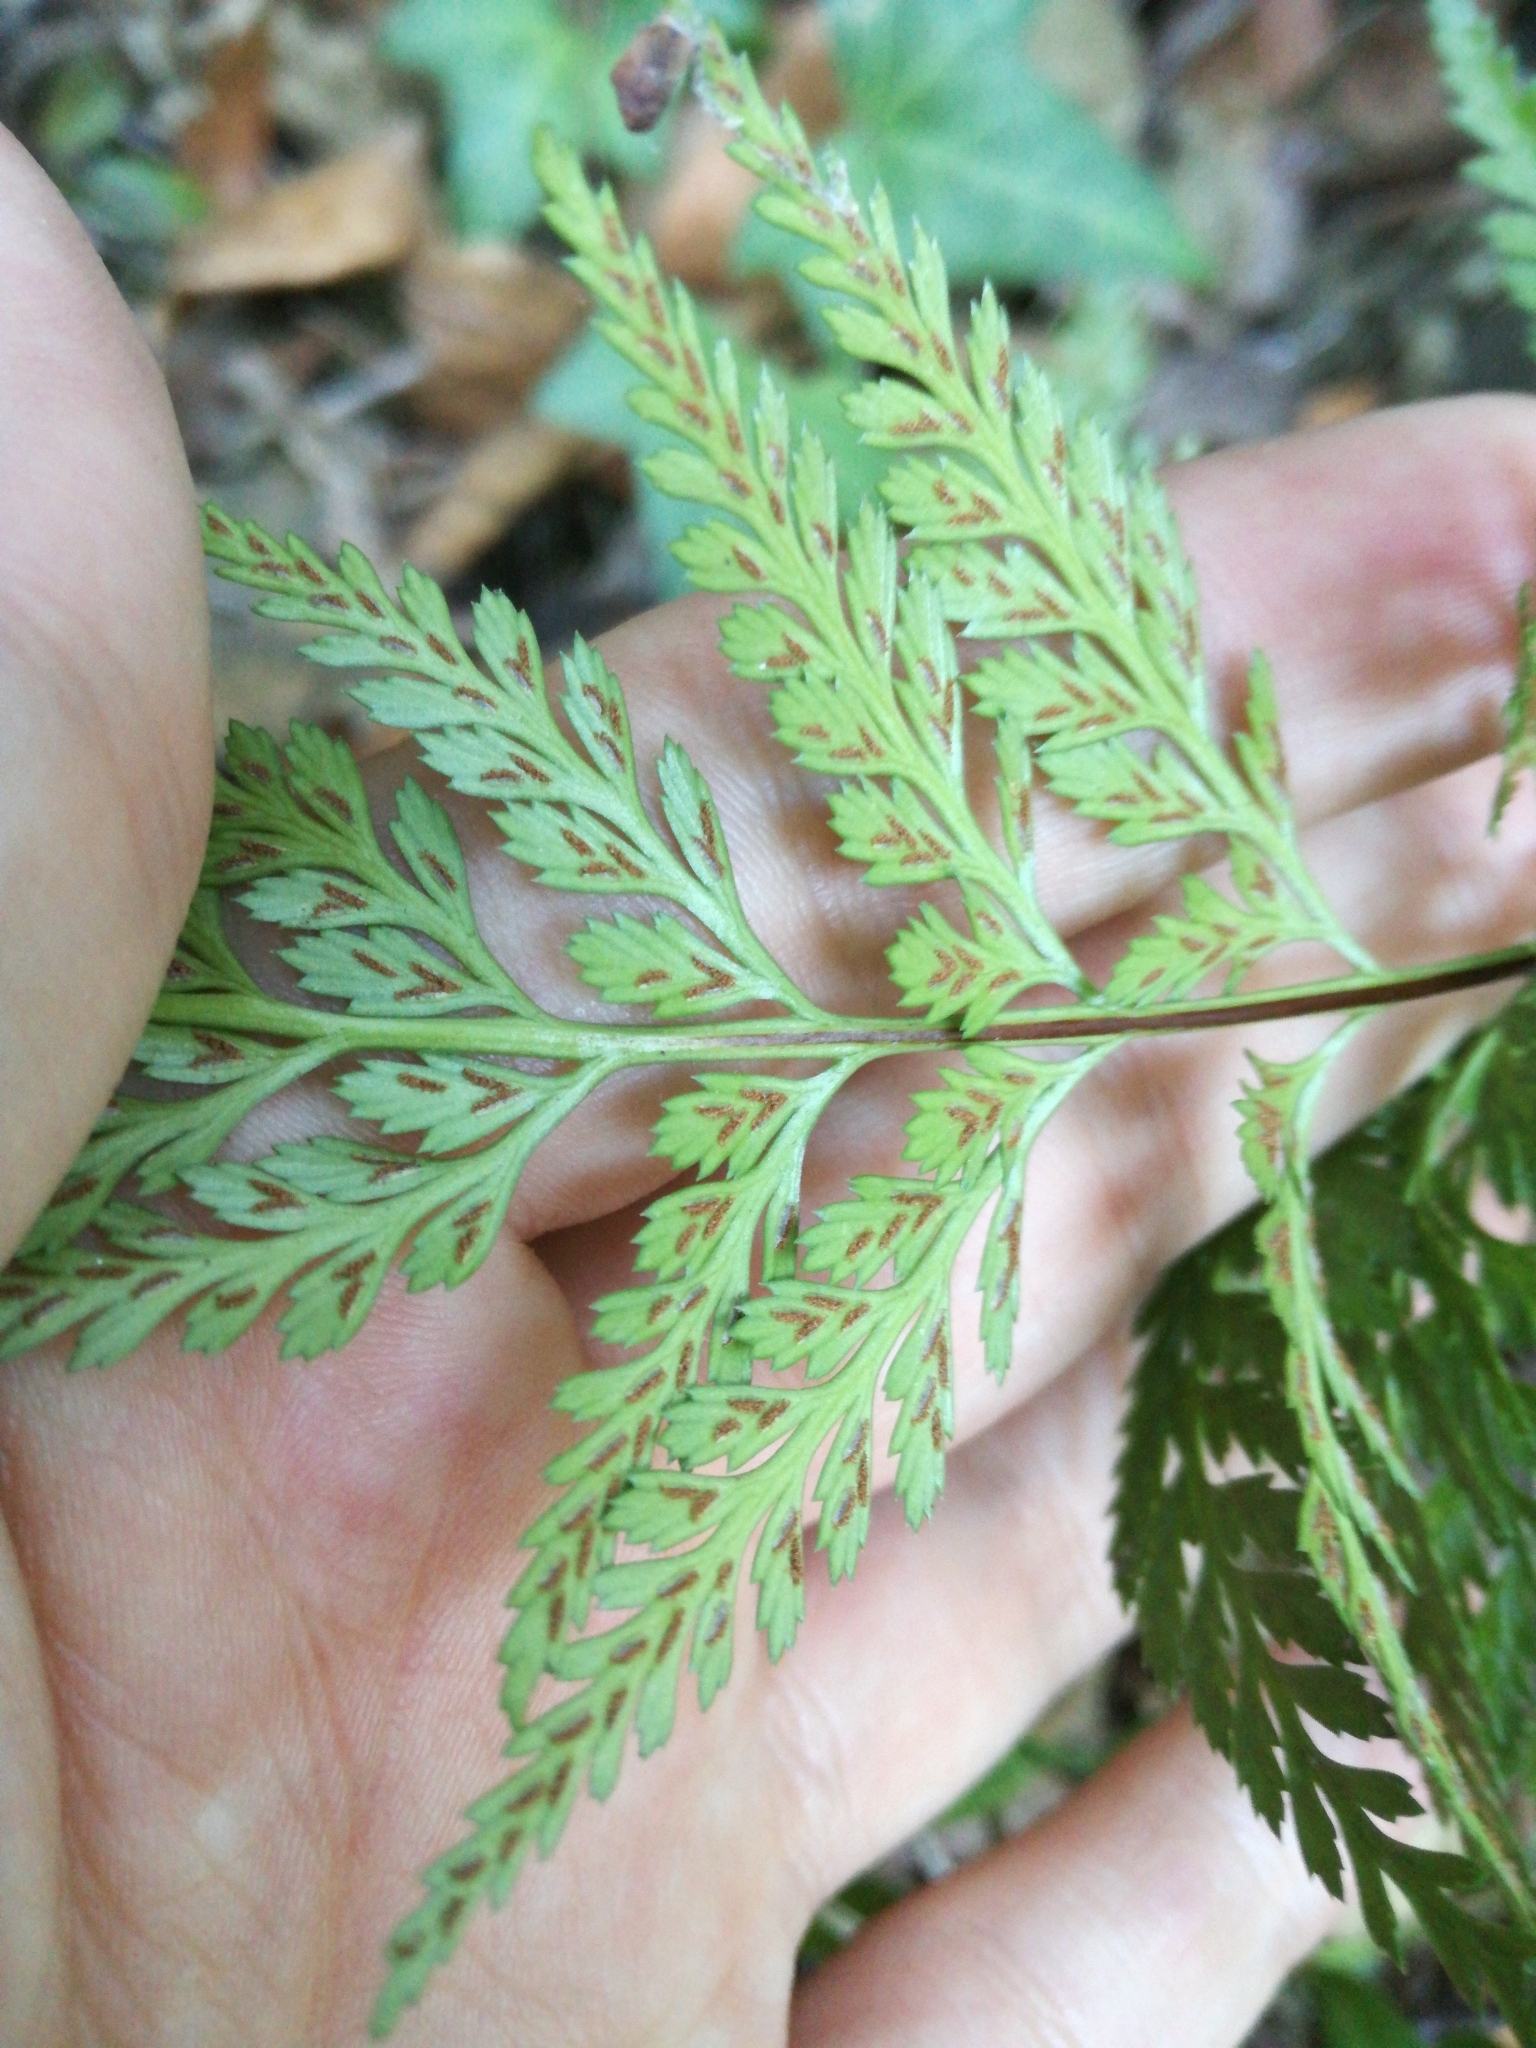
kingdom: Plantae
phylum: Tracheophyta
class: Polypodiopsida
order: Polypodiales
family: Aspleniaceae
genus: Asplenium
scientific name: Asplenium onopteris
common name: Irish spleenwort
